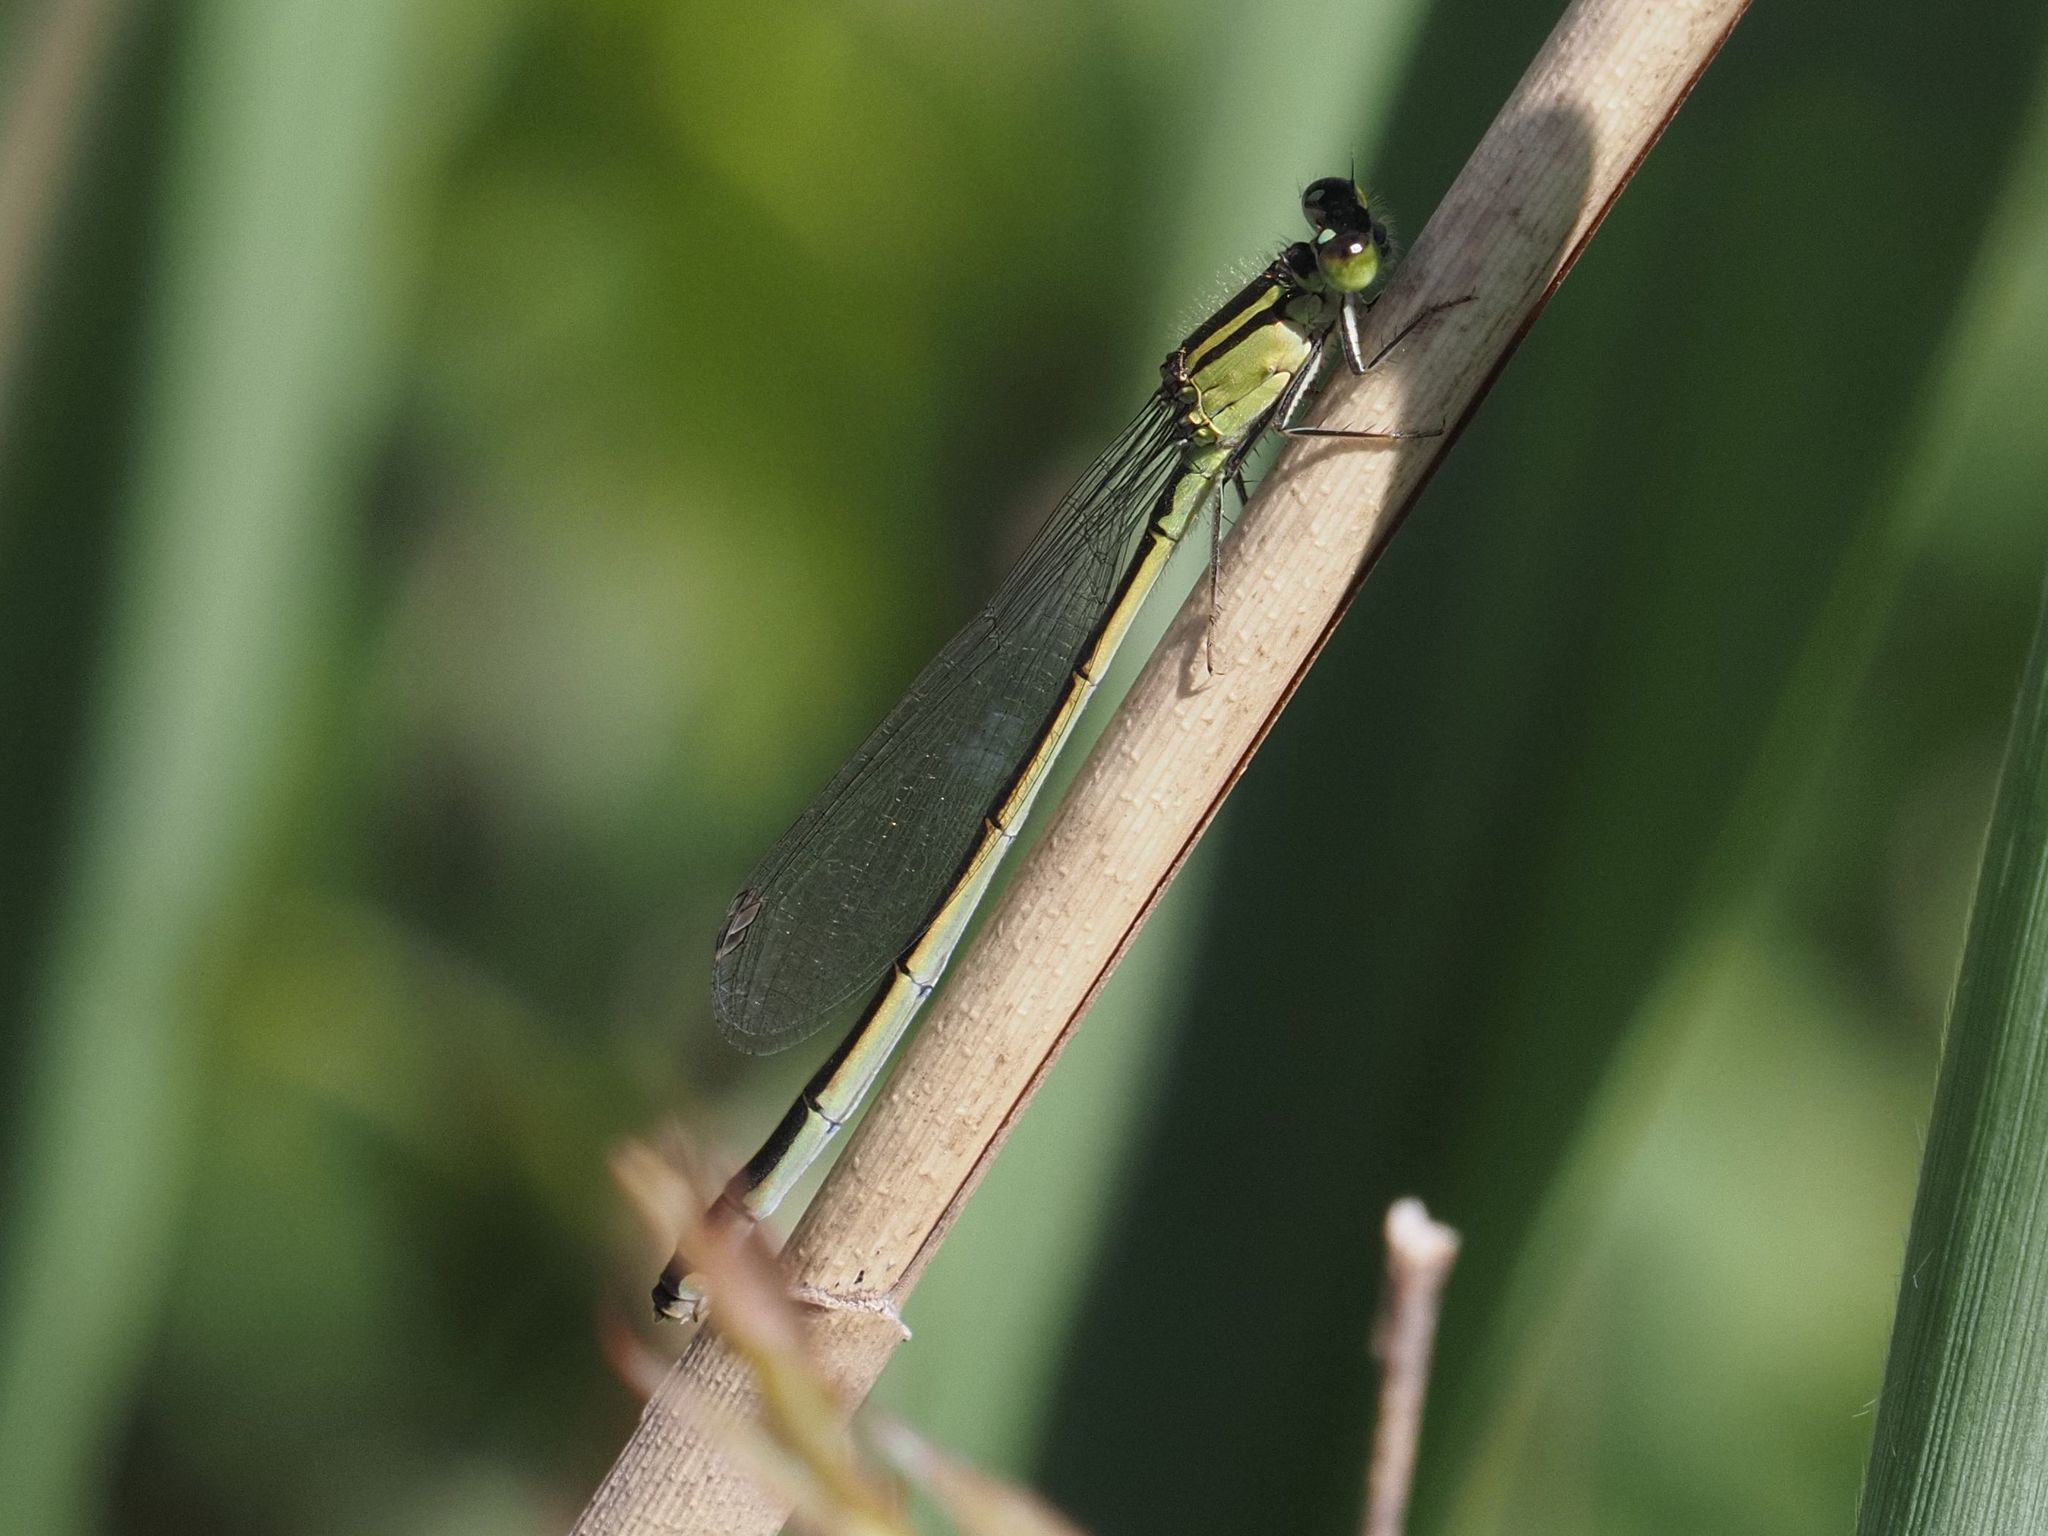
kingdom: Animalia
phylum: Arthropoda
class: Insecta
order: Odonata
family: Coenagrionidae
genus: Ischnura
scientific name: Ischnura elegans
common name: Blue-tailed damselfly
